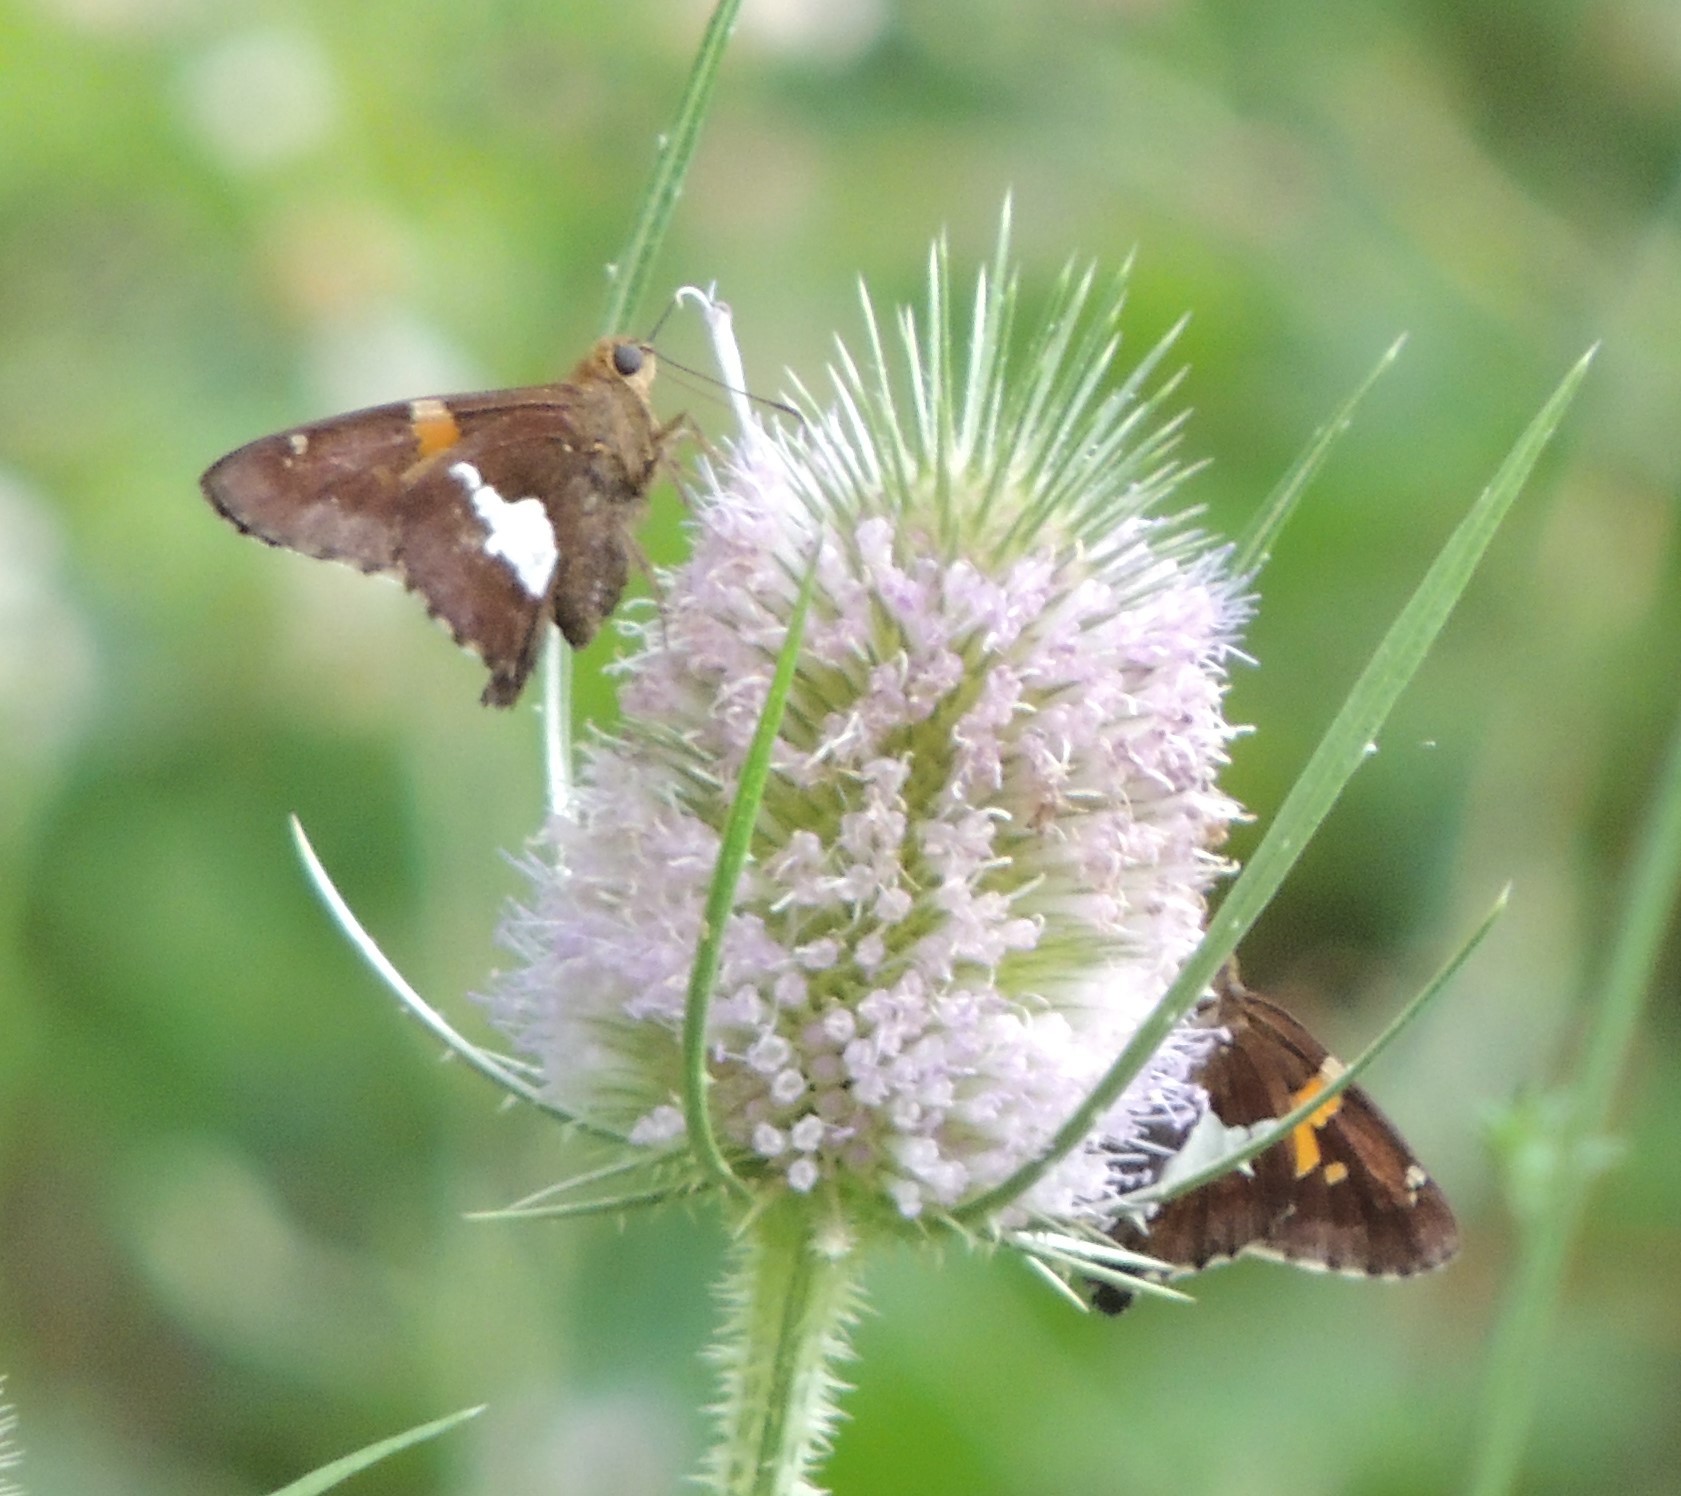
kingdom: Animalia
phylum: Arthropoda
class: Insecta
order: Lepidoptera
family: Hesperiidae
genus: Epargyreus
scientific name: Epargyreus clarus
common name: Silver-spotted skipper
